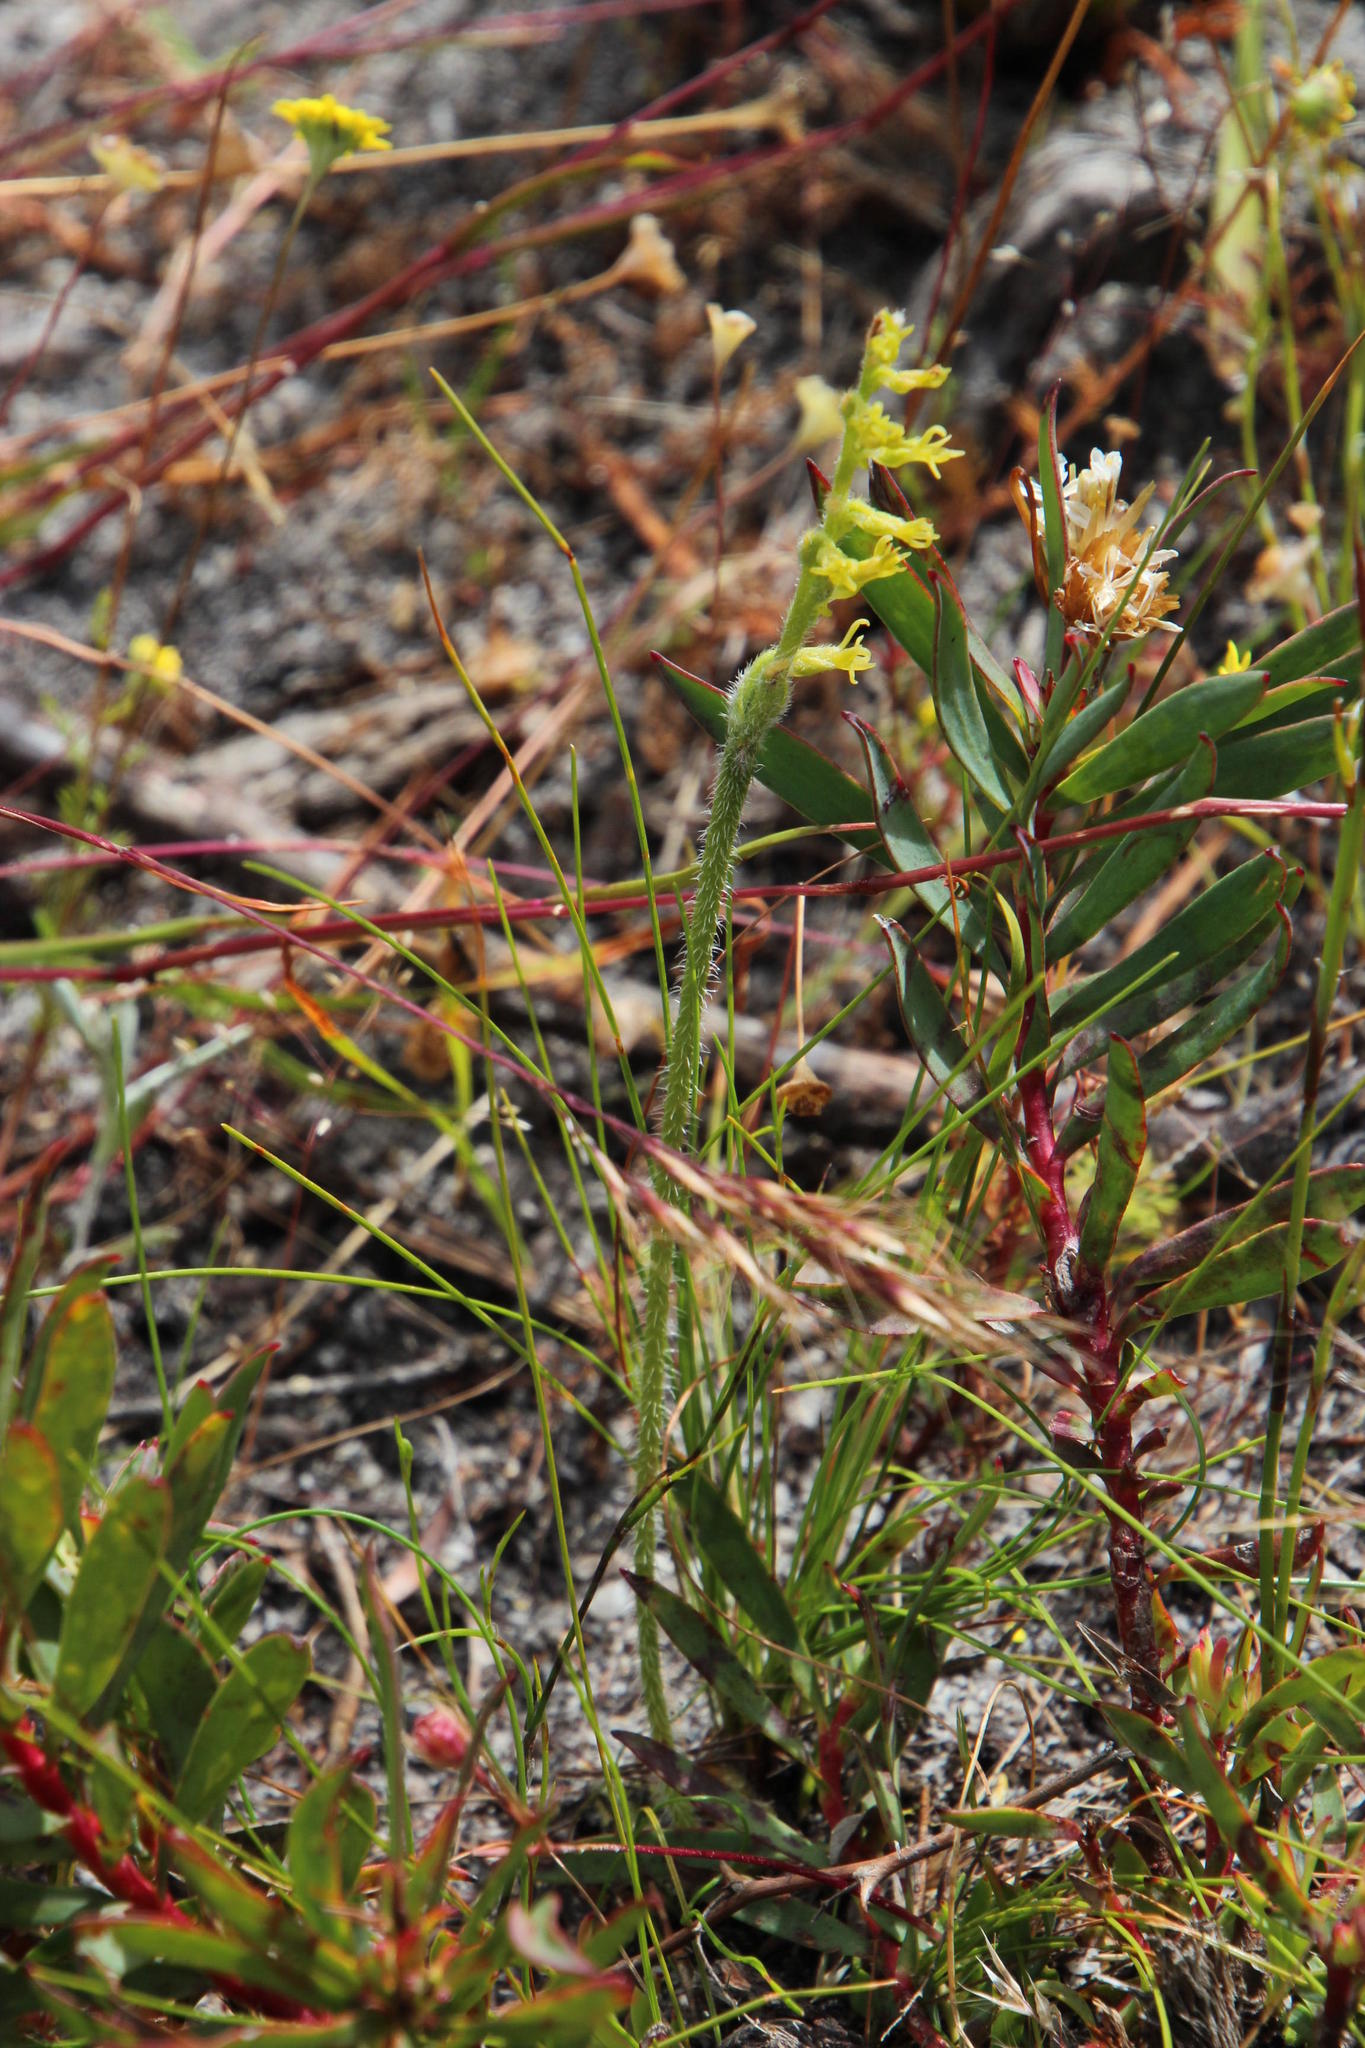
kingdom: Plantae
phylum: Tracheophyta
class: Liliopsida
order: Asparagales
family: Orchidaceae
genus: Holothrix
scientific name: Holothrix villosa
